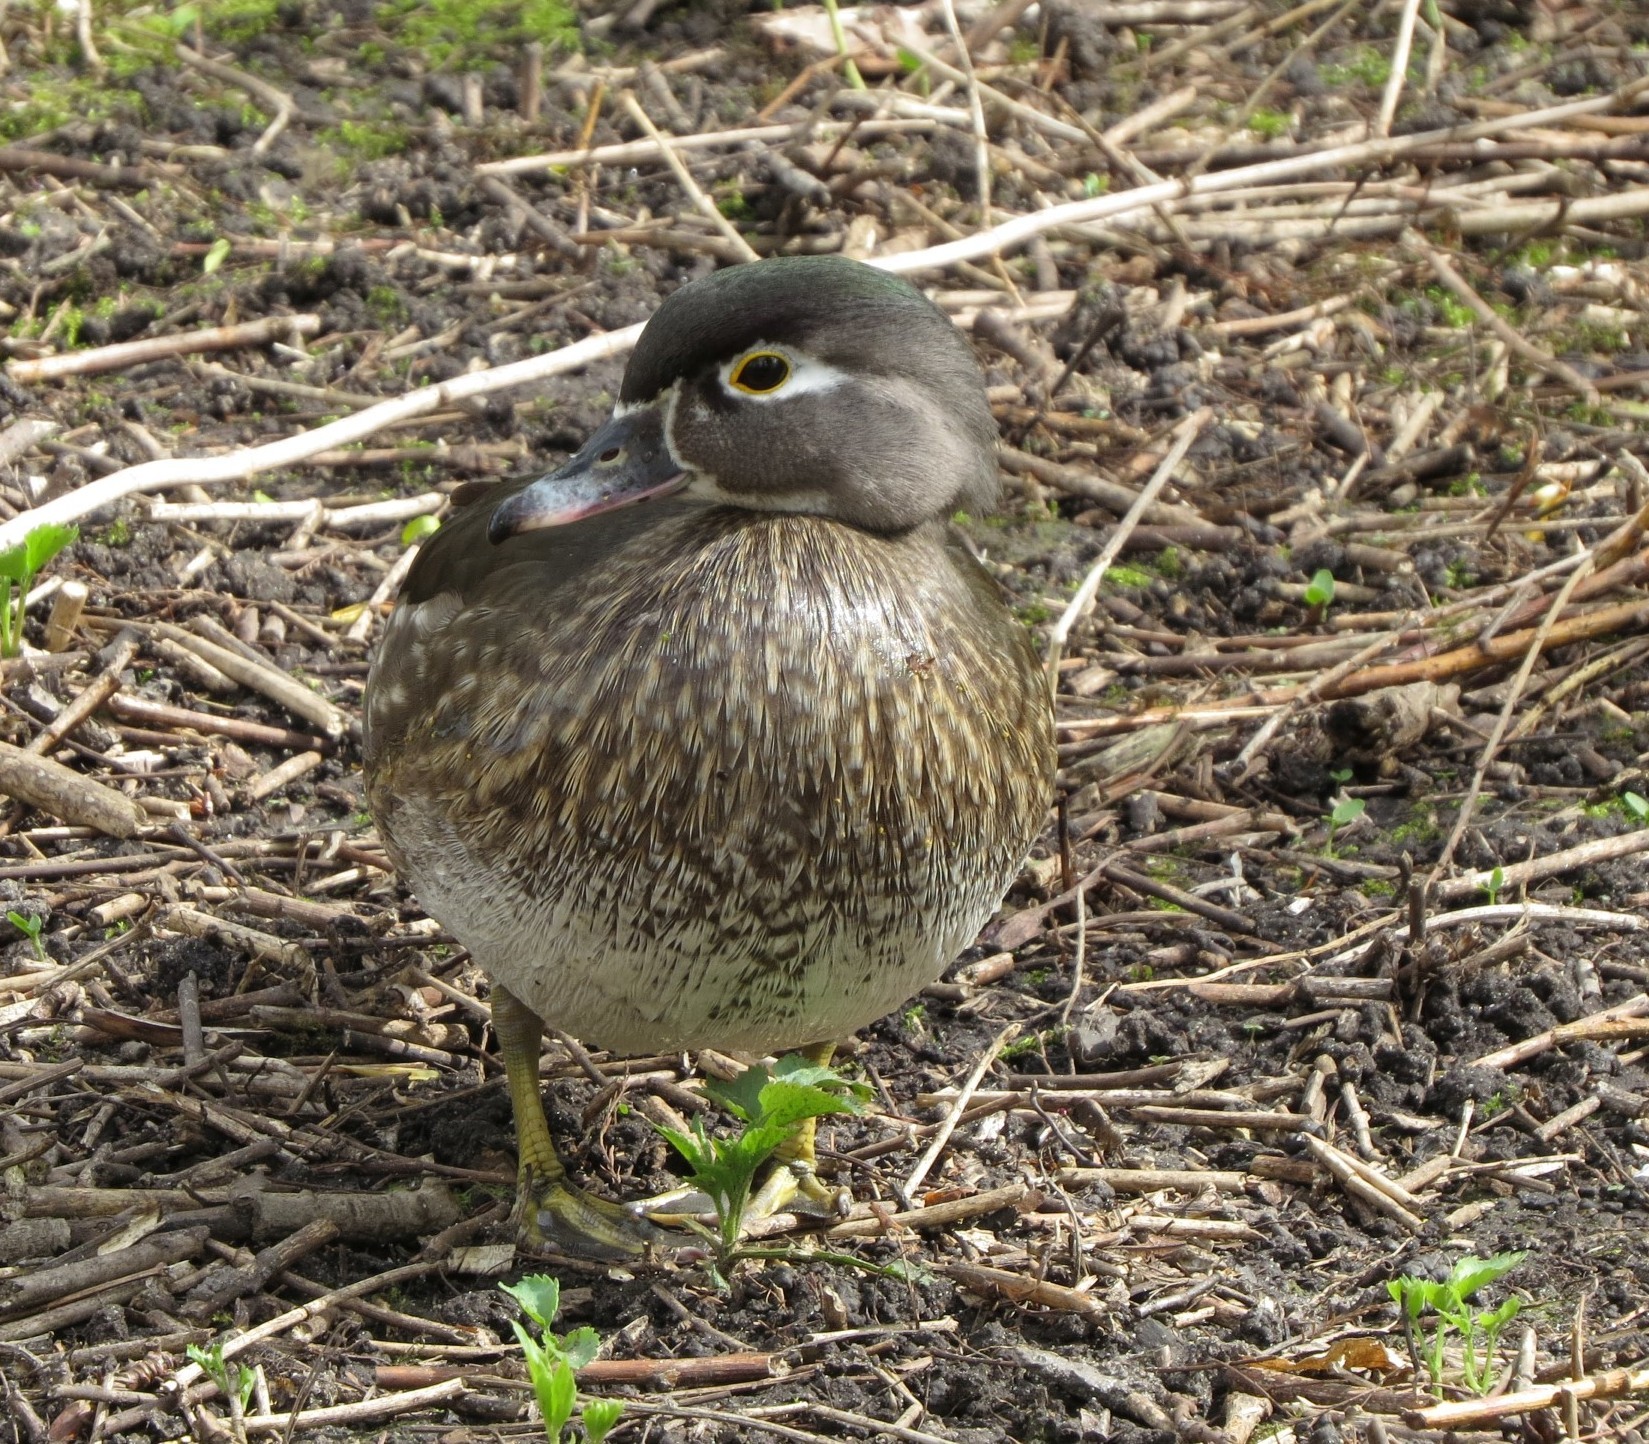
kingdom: Animalia
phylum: Chordata
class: Aves
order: Anseriformes
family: Anatidae
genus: Aix
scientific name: Aix sponsa
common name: Wood duck
